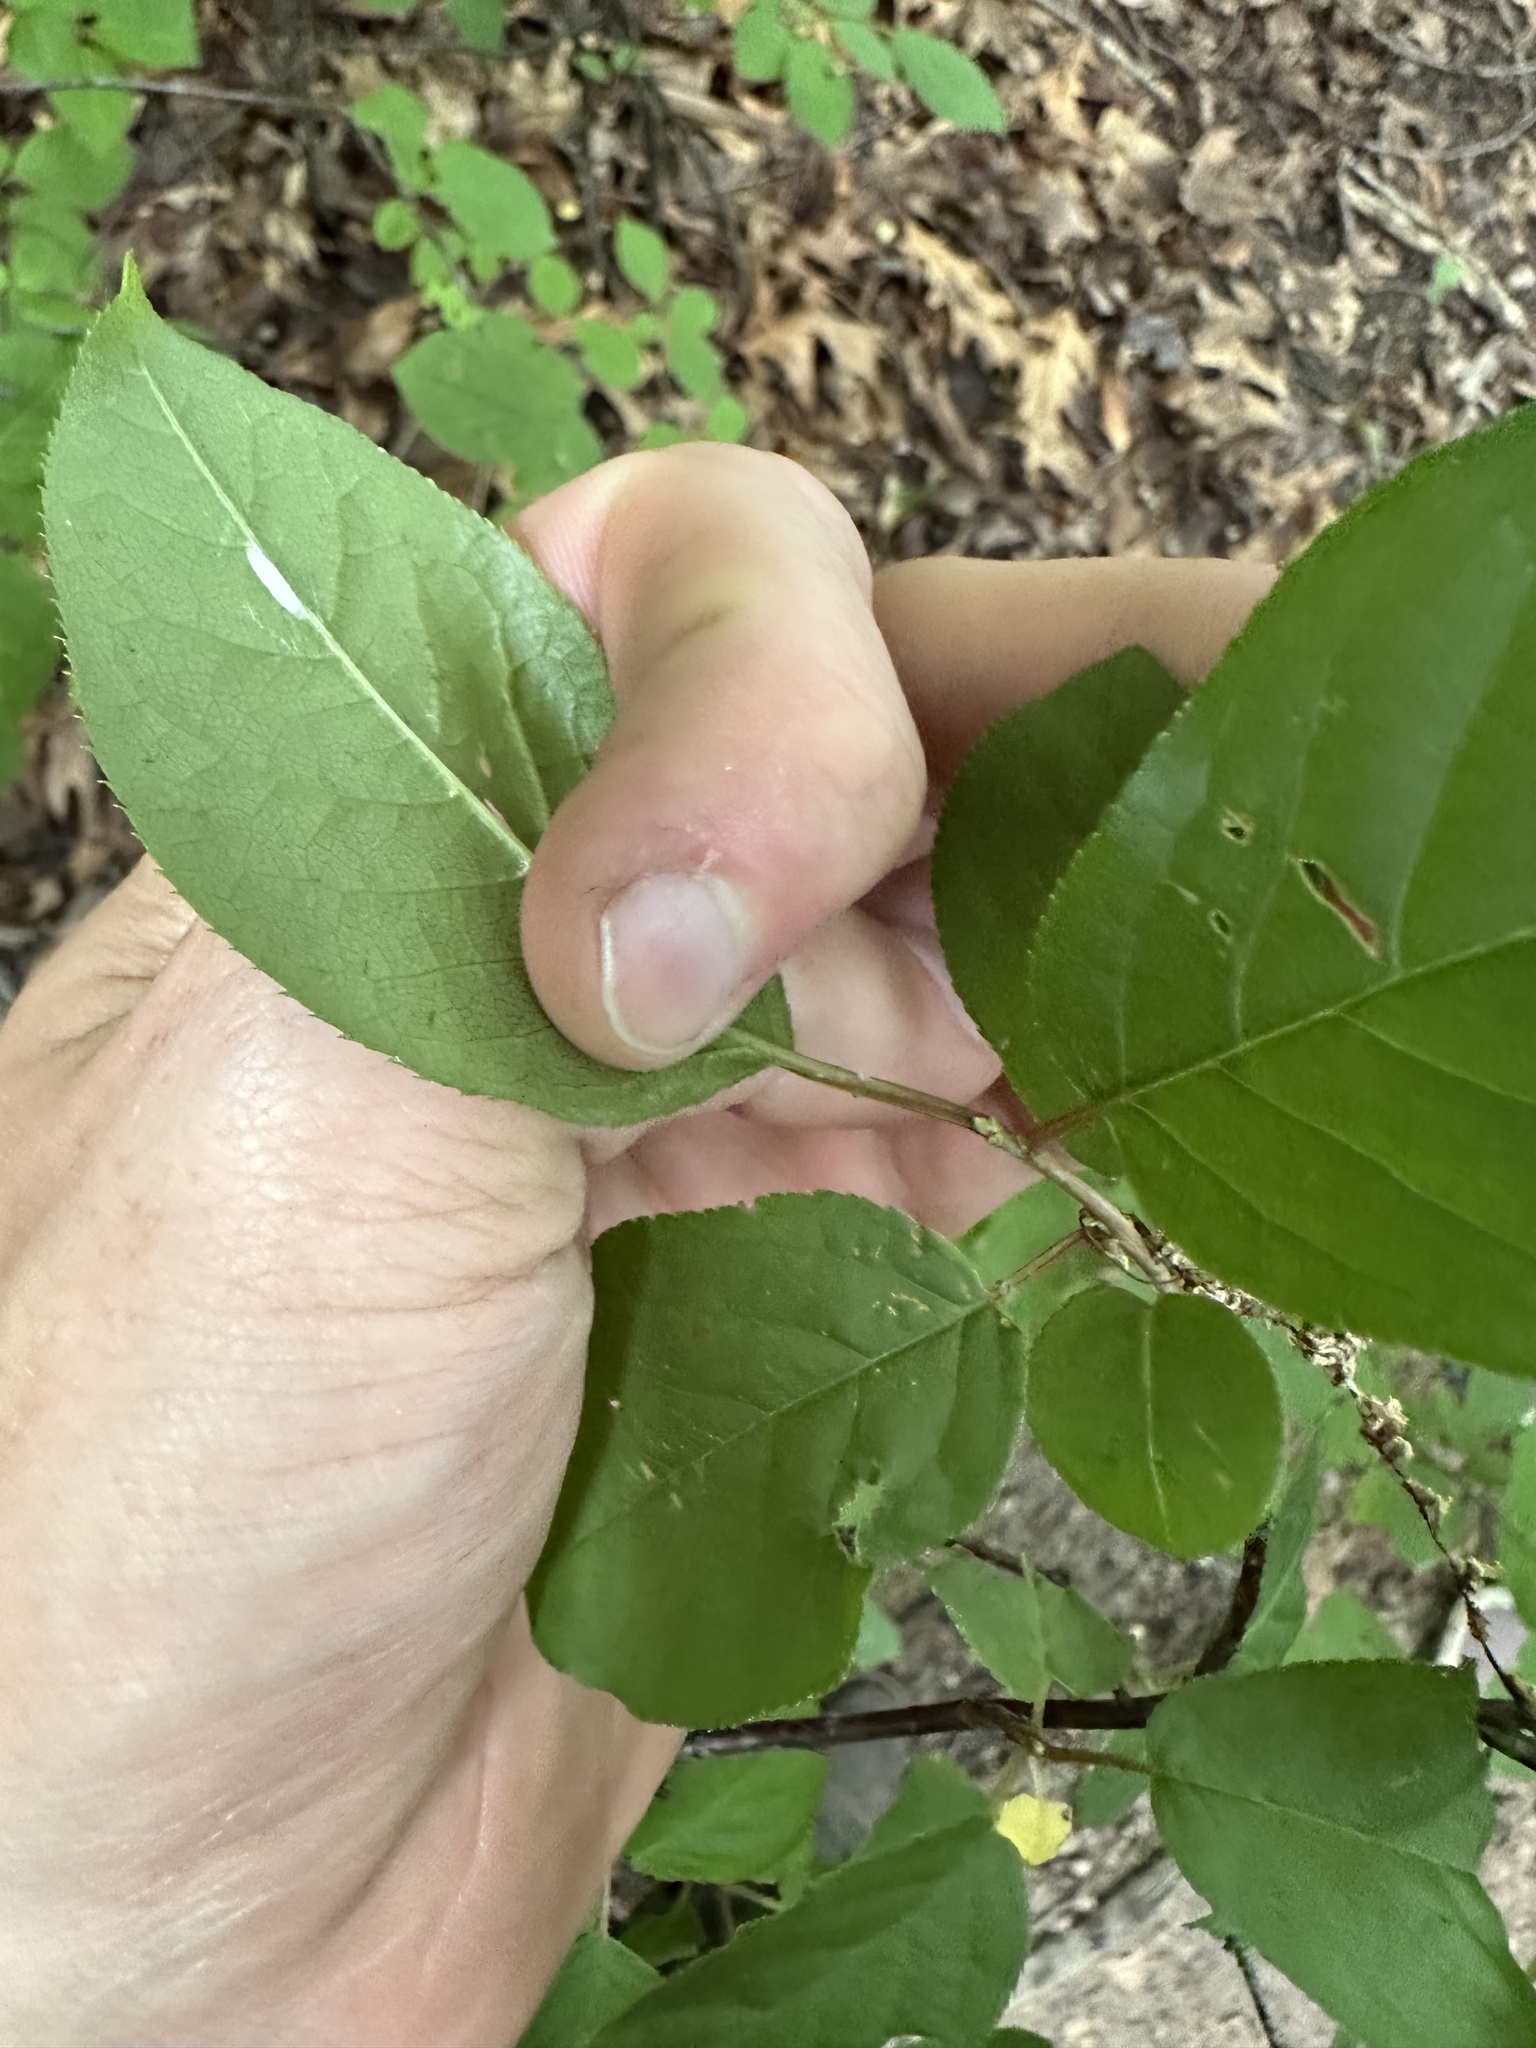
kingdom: Plantae
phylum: Tracheophyta
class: Magnoliopsida
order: Rosales
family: Rosaceae
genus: Prunus
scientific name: Prunus virginiana
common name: Chokecherry
